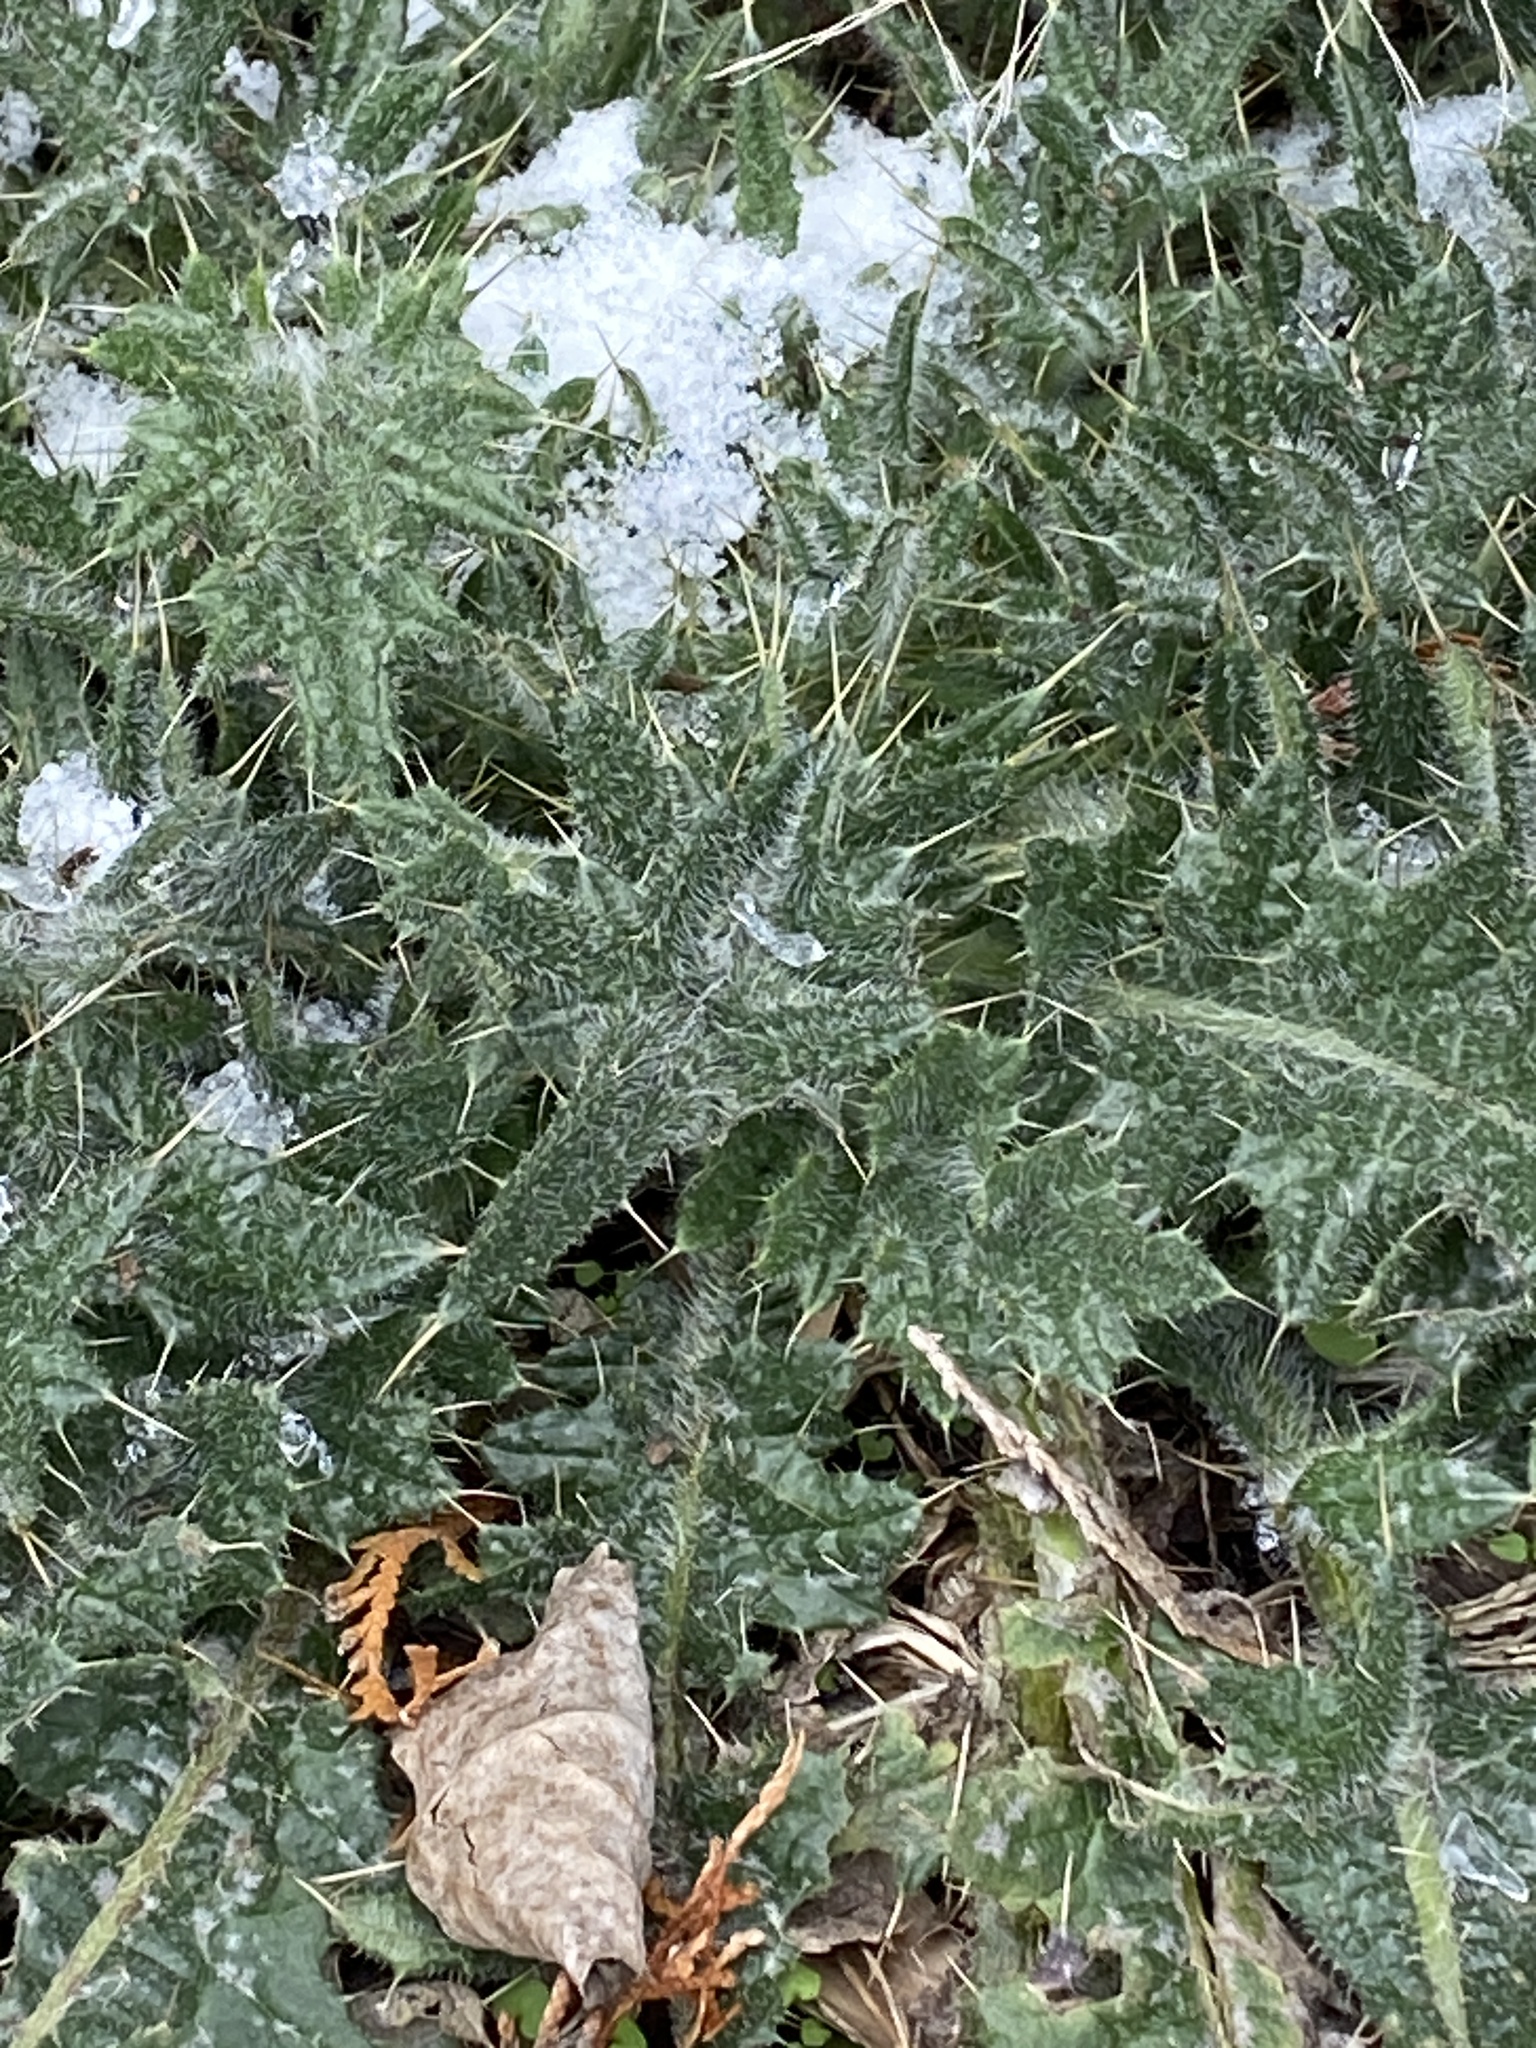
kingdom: Plantae
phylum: Tracheophyta
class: Magnoliopsida
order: Asterales
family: Asteraceae
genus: Cirsium
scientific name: Cirsium vulgare
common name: Bull thistle
